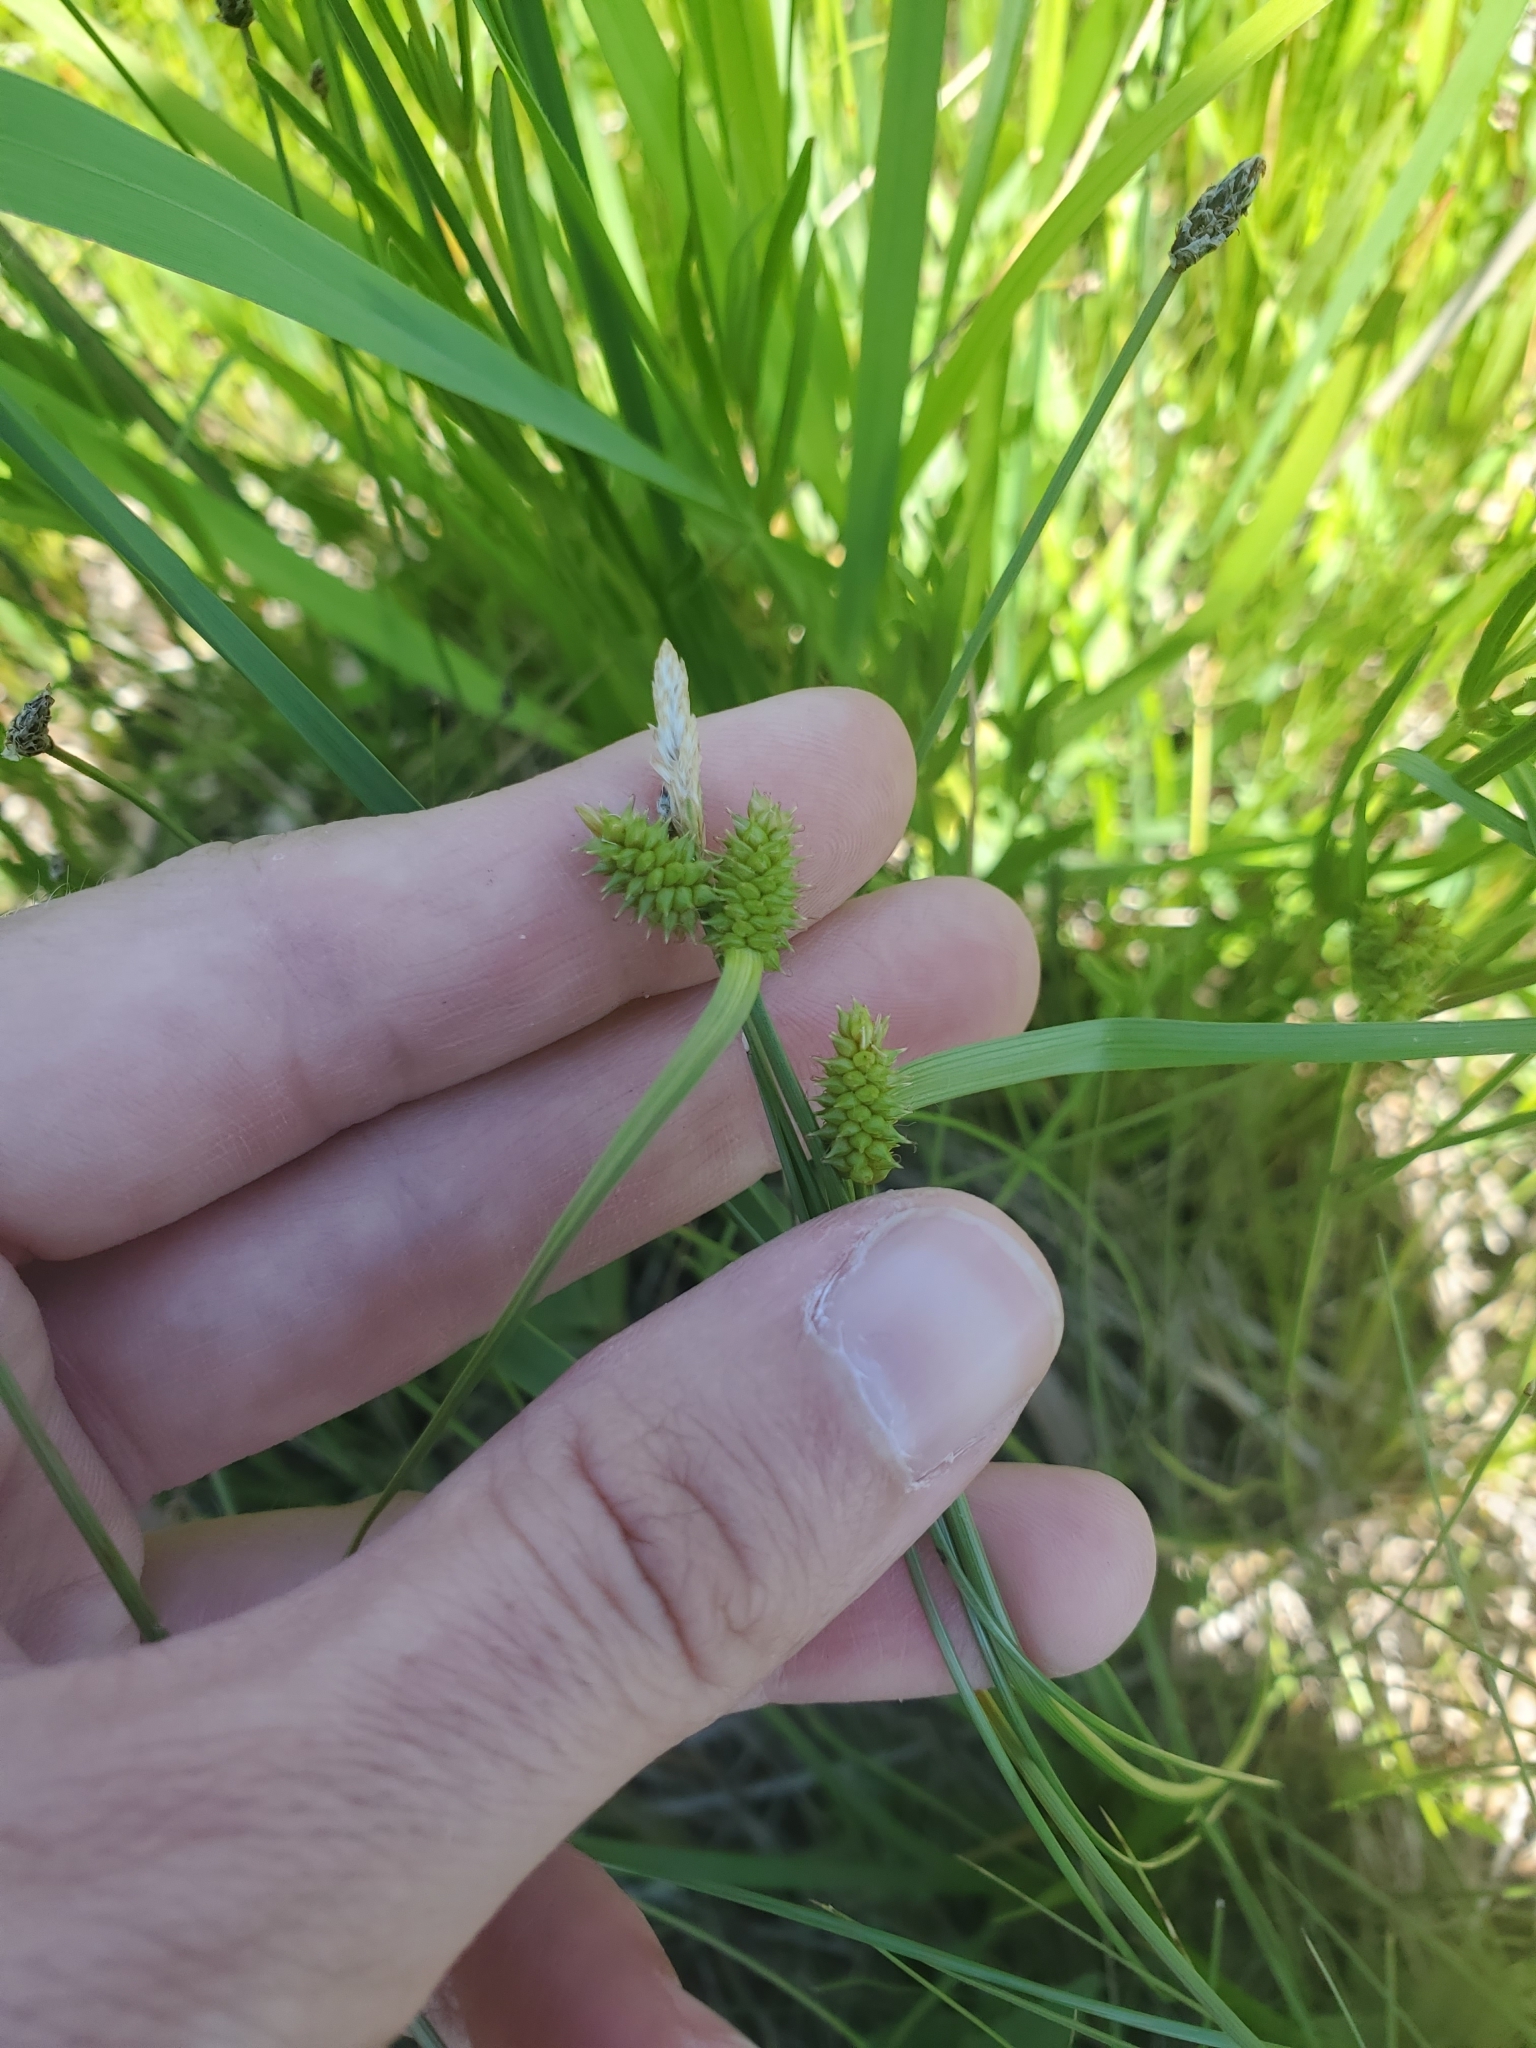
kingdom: Plantae
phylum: Tracheophyta
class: Liliopsida
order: Poales
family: Cyperaceae
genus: Carex
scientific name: Carex
